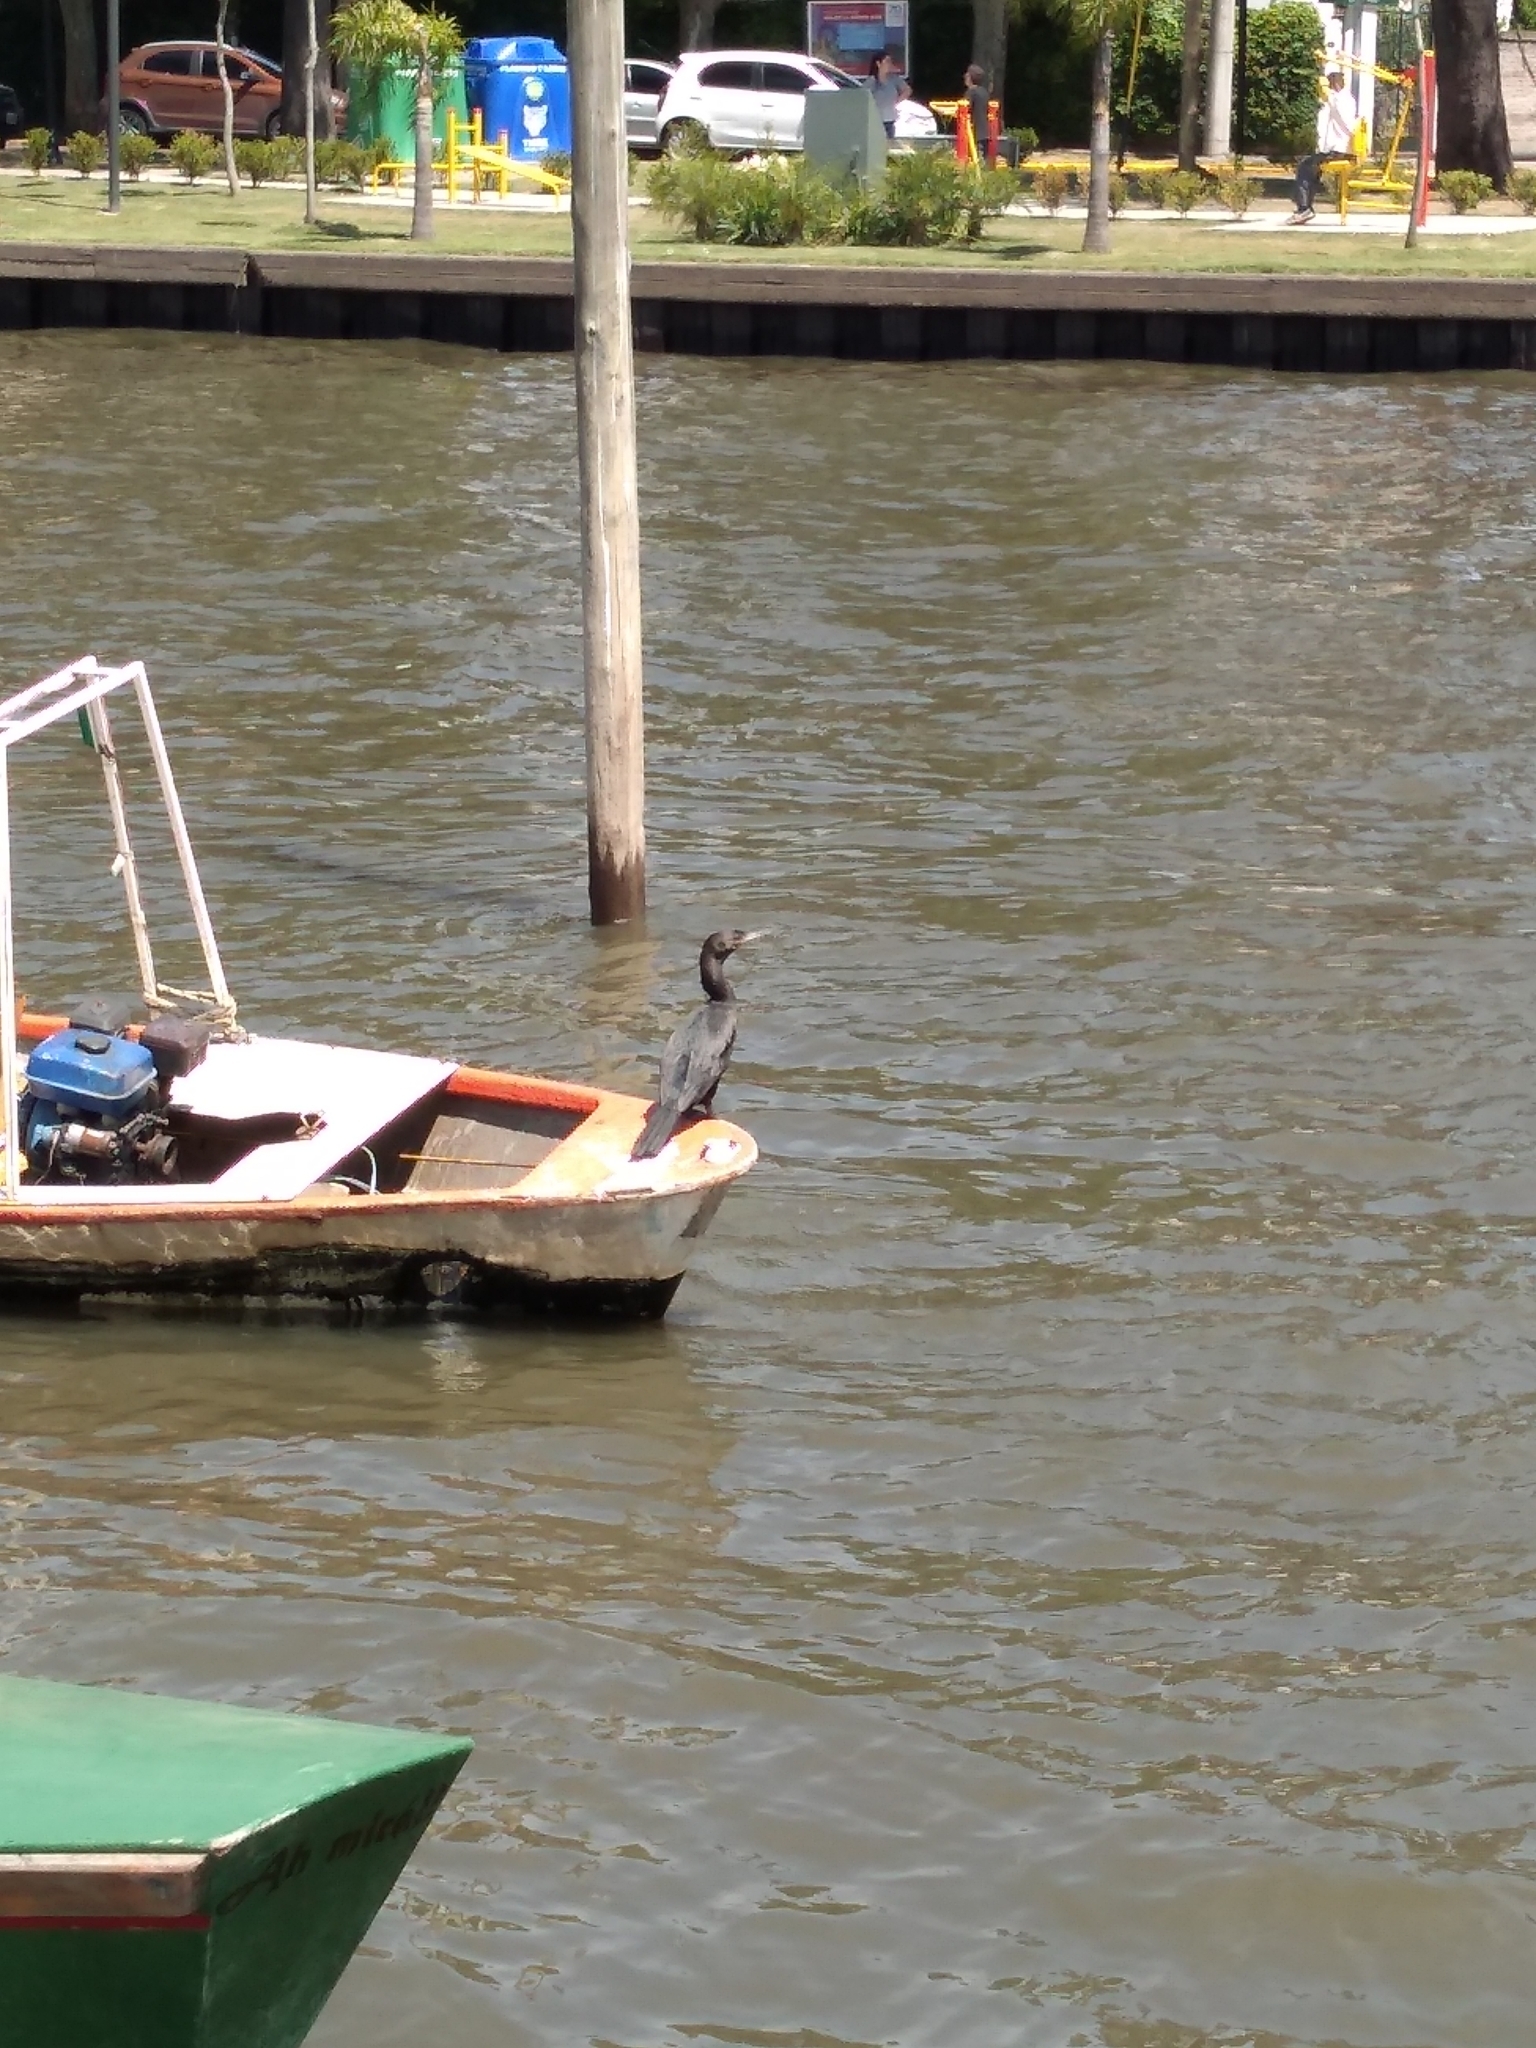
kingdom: Animalia
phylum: Chordata
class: Aves
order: Suliformes
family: Phalacrocoracidae
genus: Phalacrocorax
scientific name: Phalacrocorax brasilianus
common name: Neotropic cormorant
